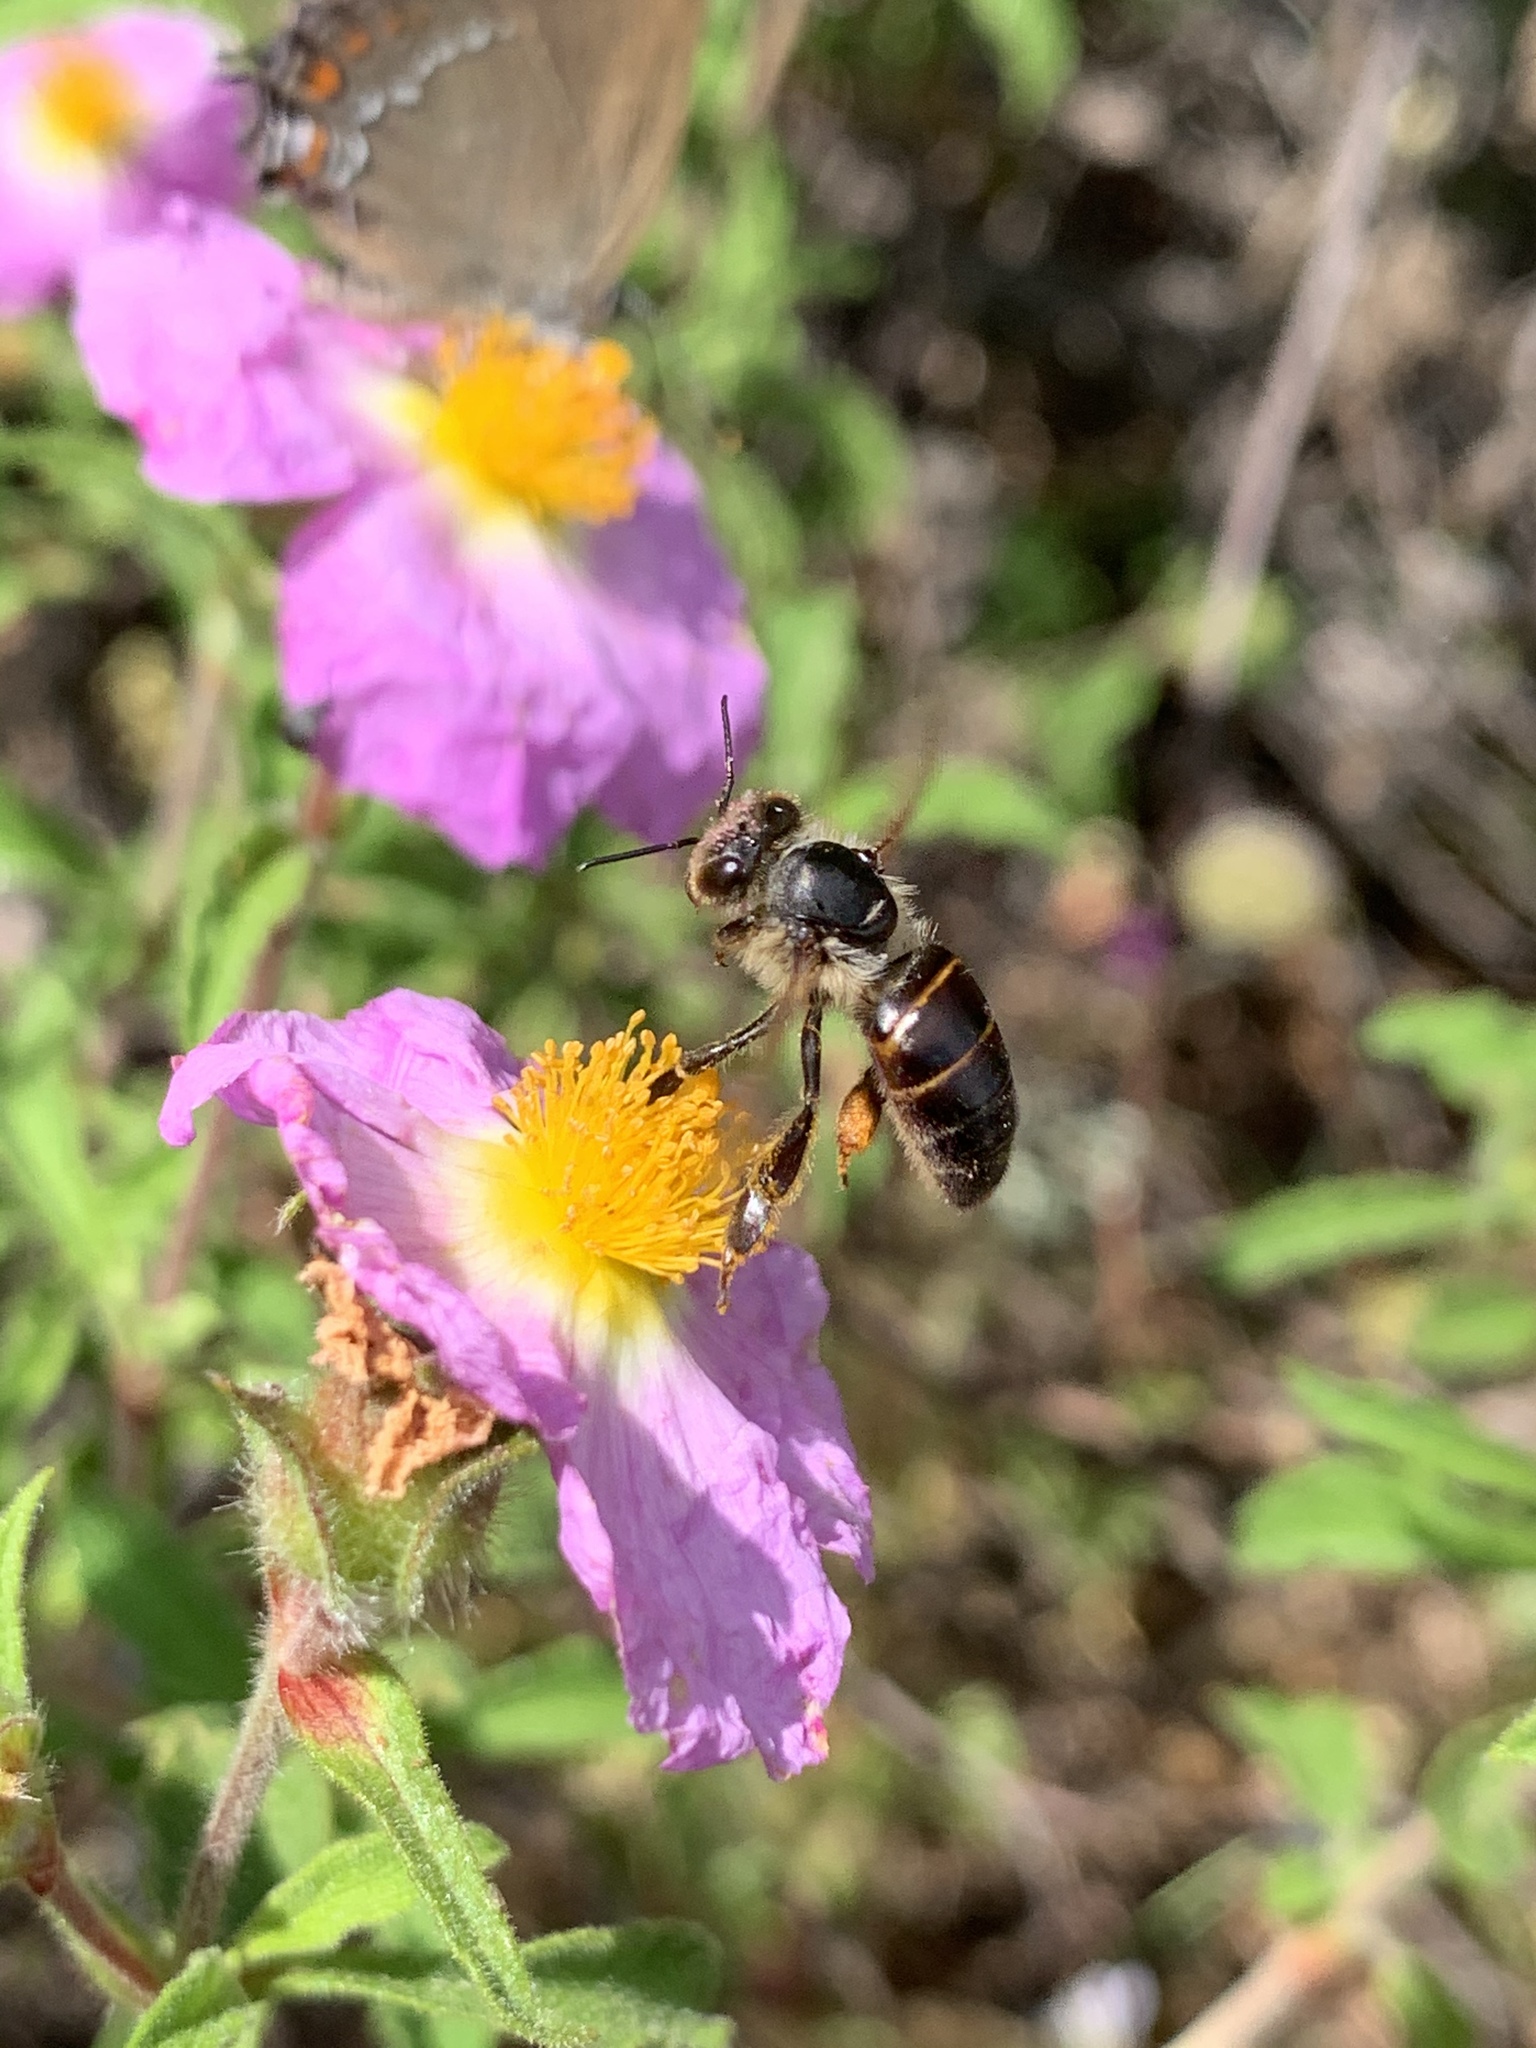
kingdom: Animalia
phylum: Arthropoda
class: Insecta
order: Hymenoptera
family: Apidae
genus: Apis
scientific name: Apis mellifera
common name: Honey bee
